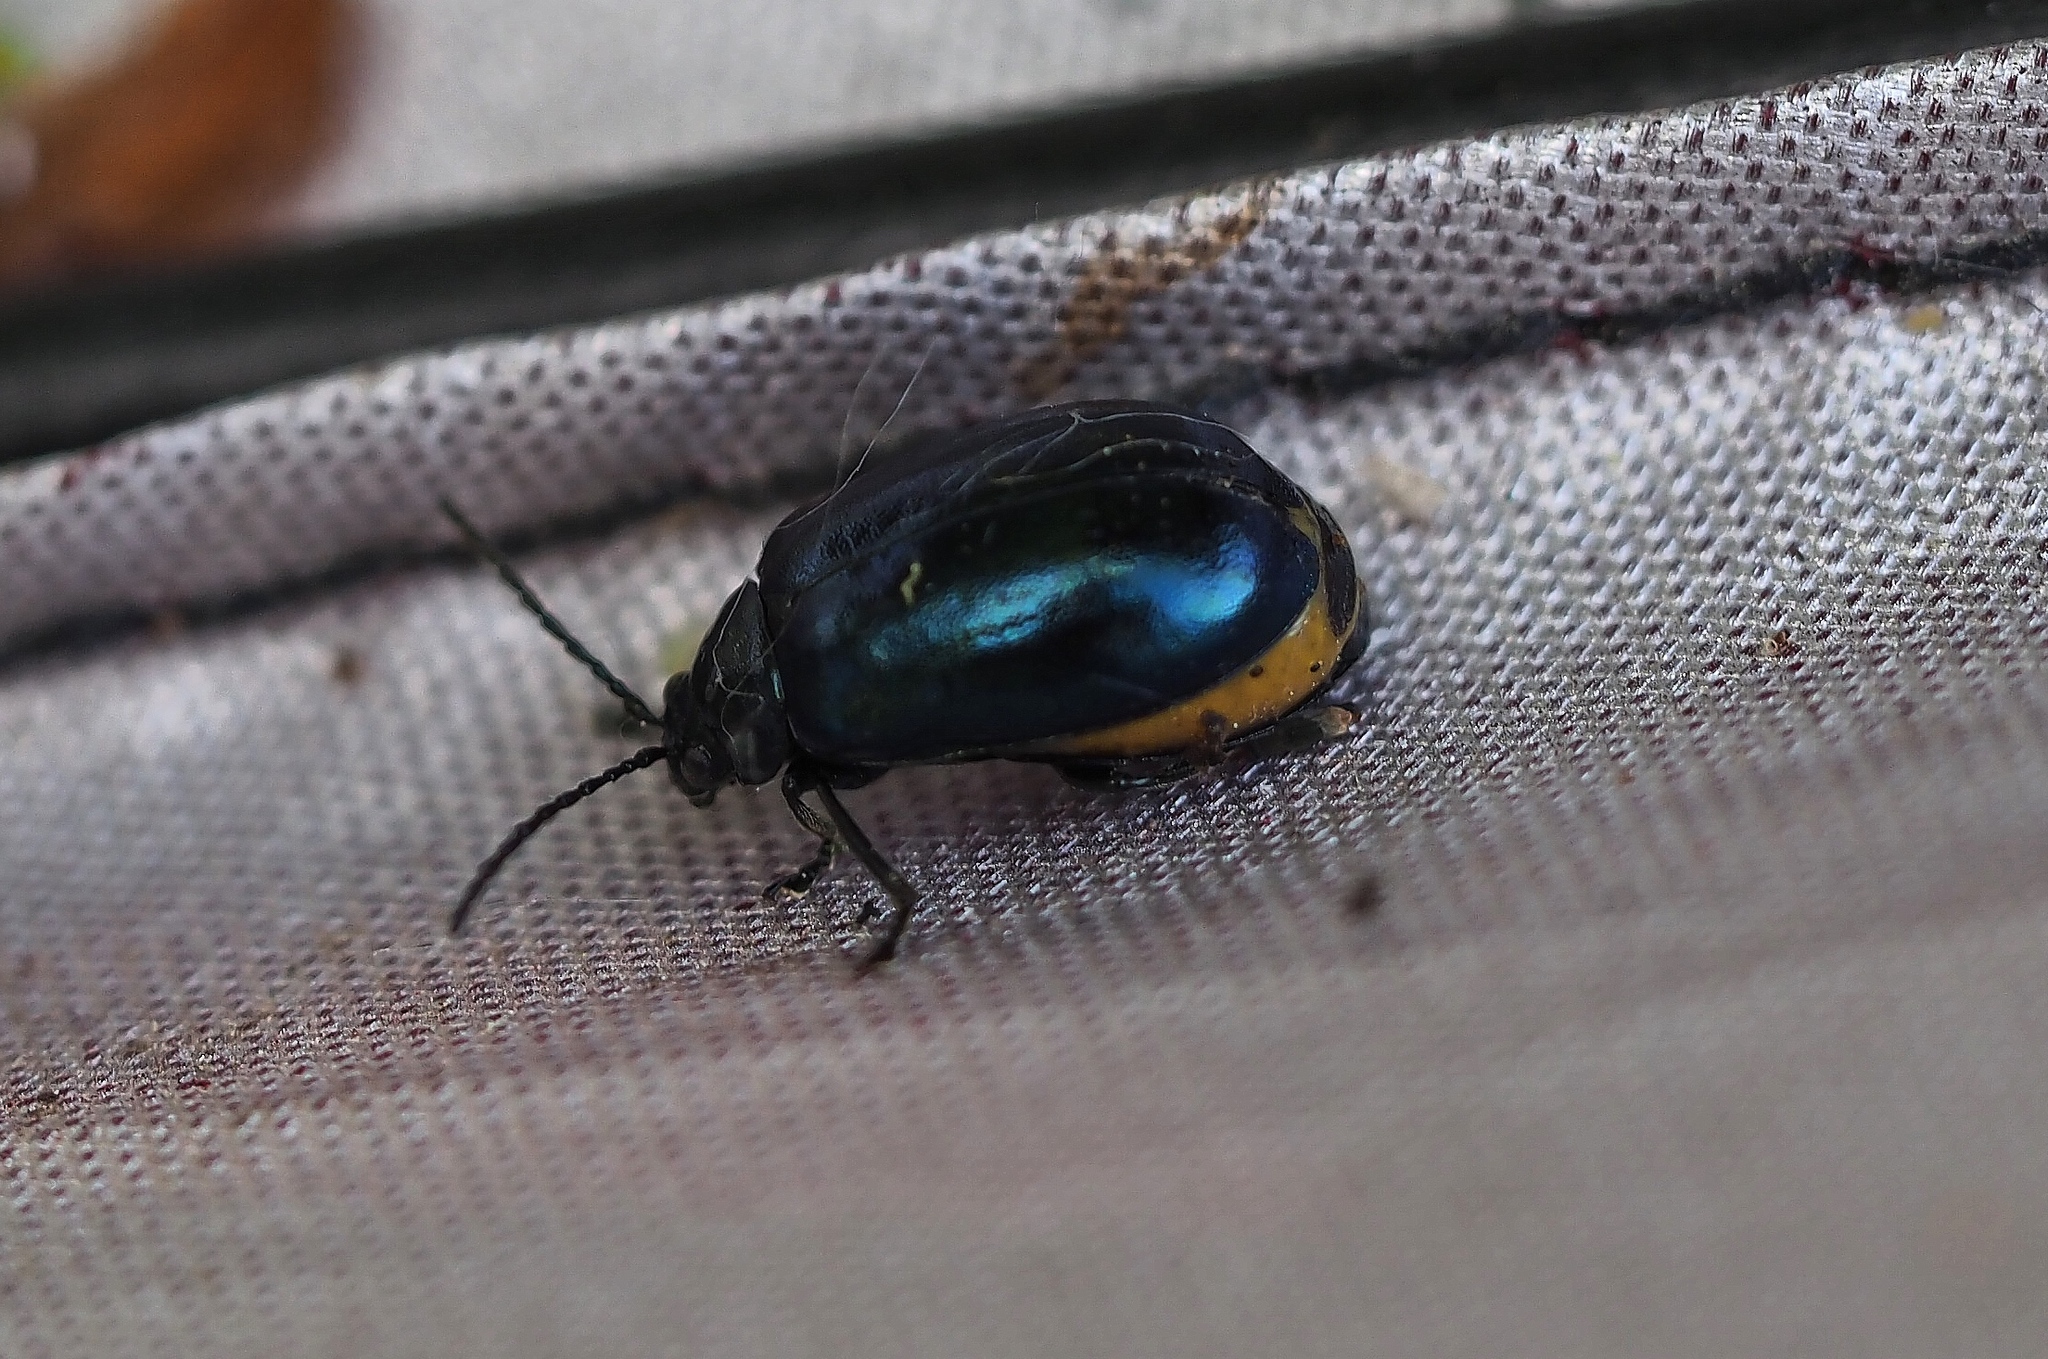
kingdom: Animalia
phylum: Arthropoda
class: Insecta
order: Coleoptera
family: Chrysomelidae
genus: Agelastica
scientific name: Agelastica alni
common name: Alder leaf beetle
